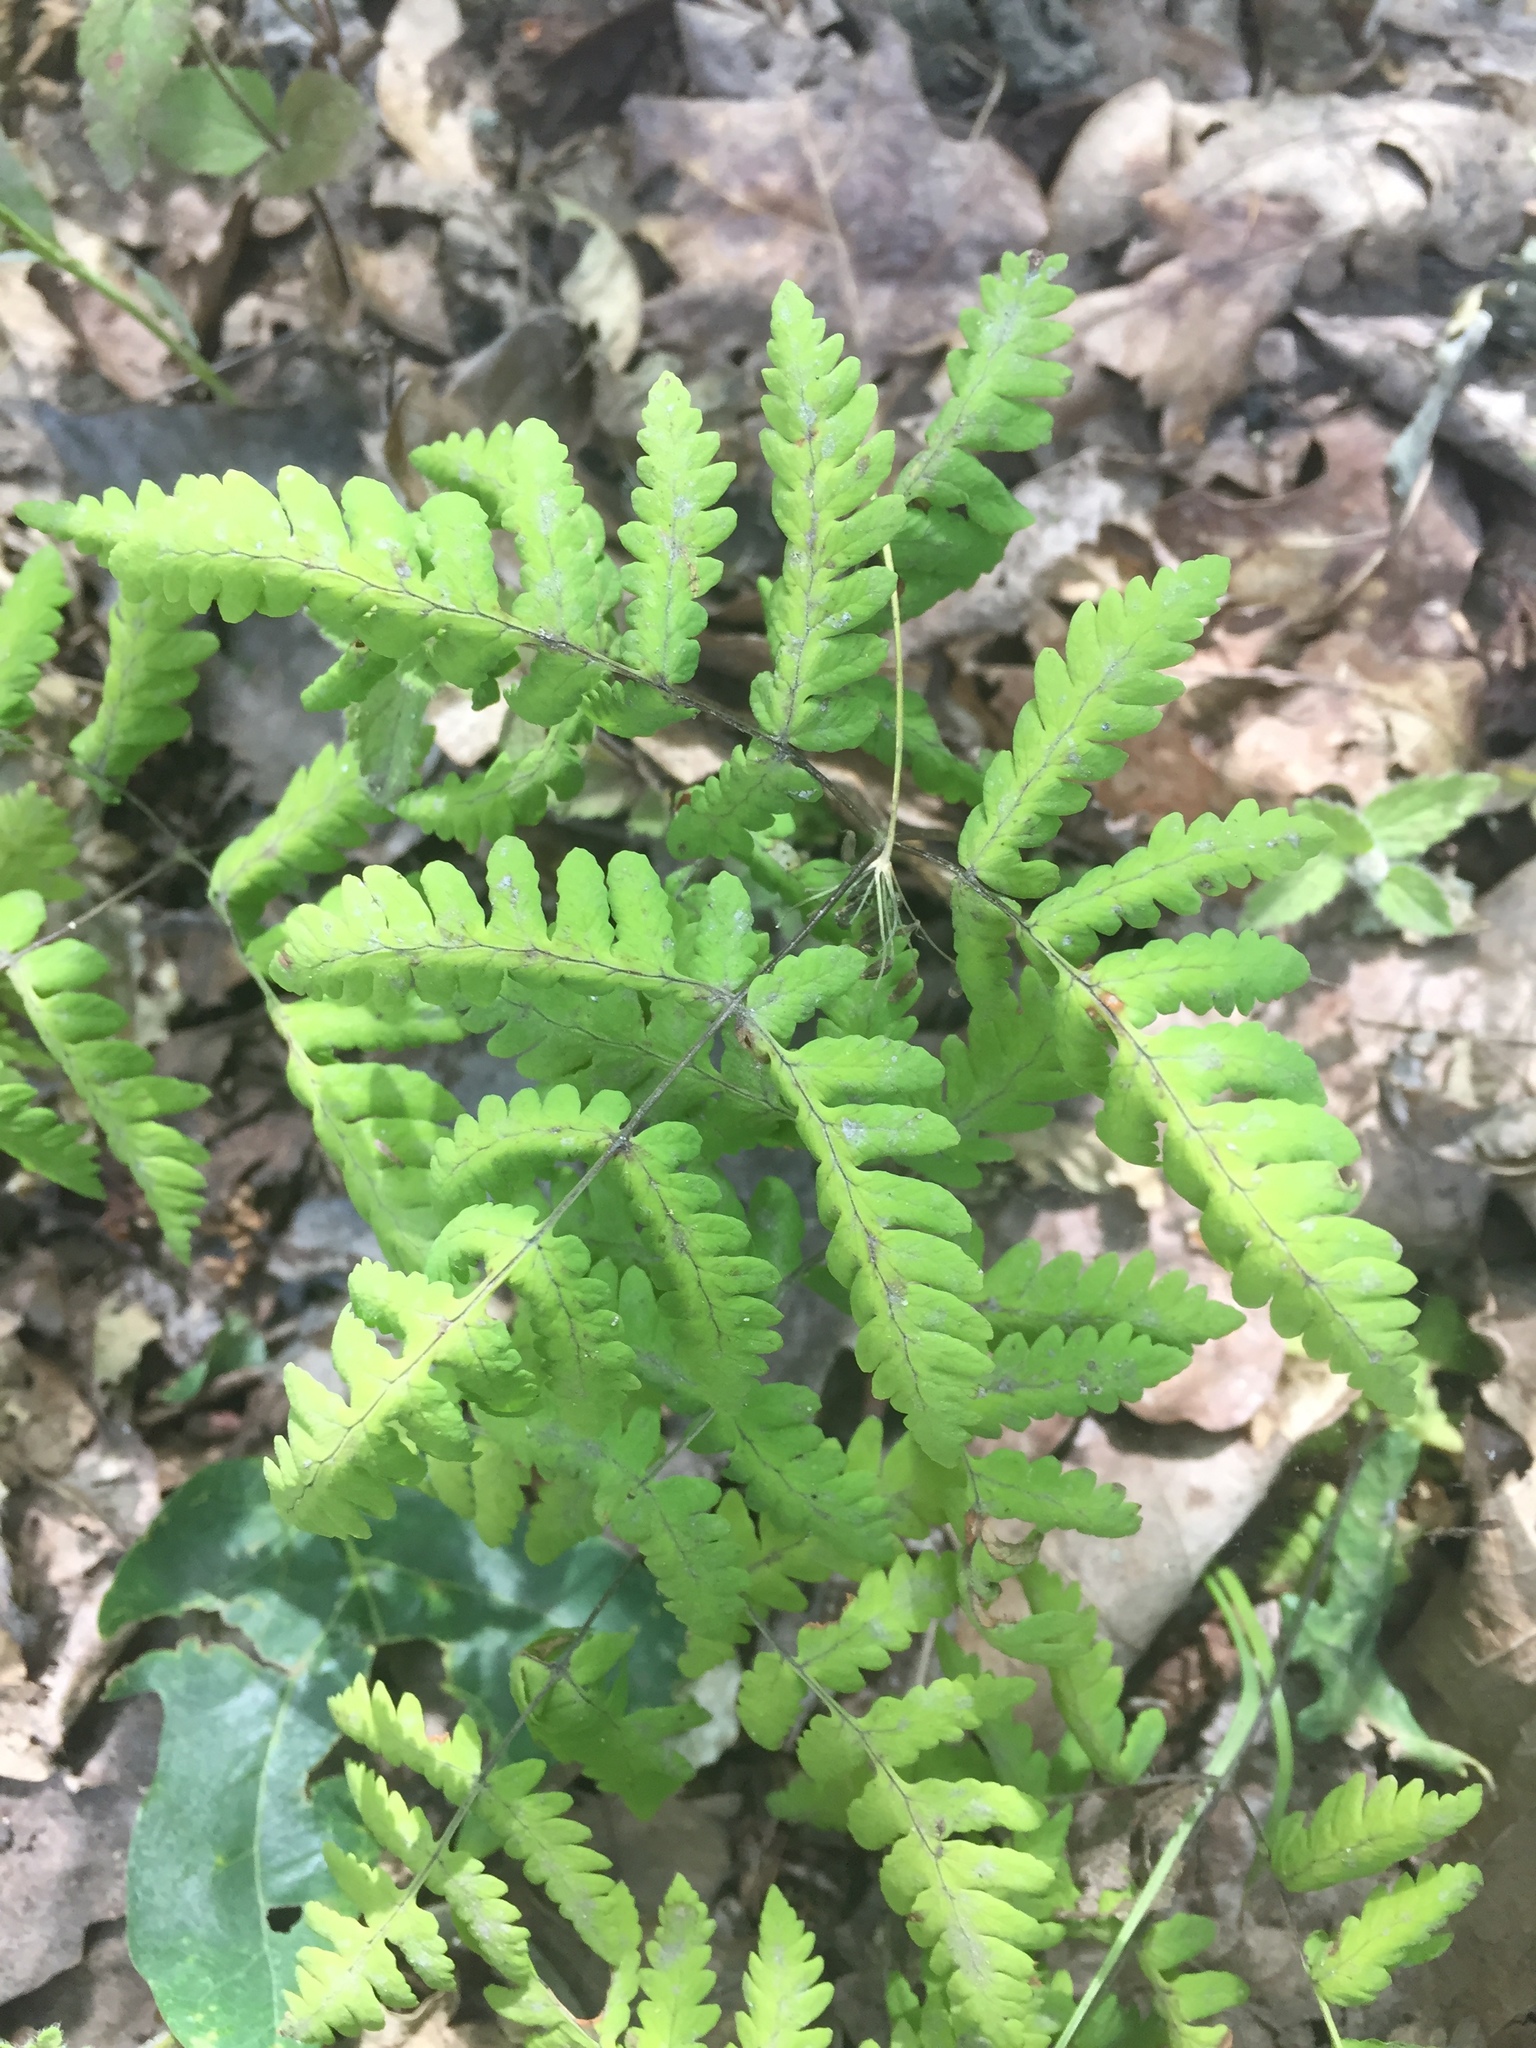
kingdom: Plantae
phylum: Tracheophyta
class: Polypodiopsida
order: Polypodiales
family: Cystopteridaceae
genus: Gymnocarpium
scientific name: Gymnocarpium dryopteris
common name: Oak fern
